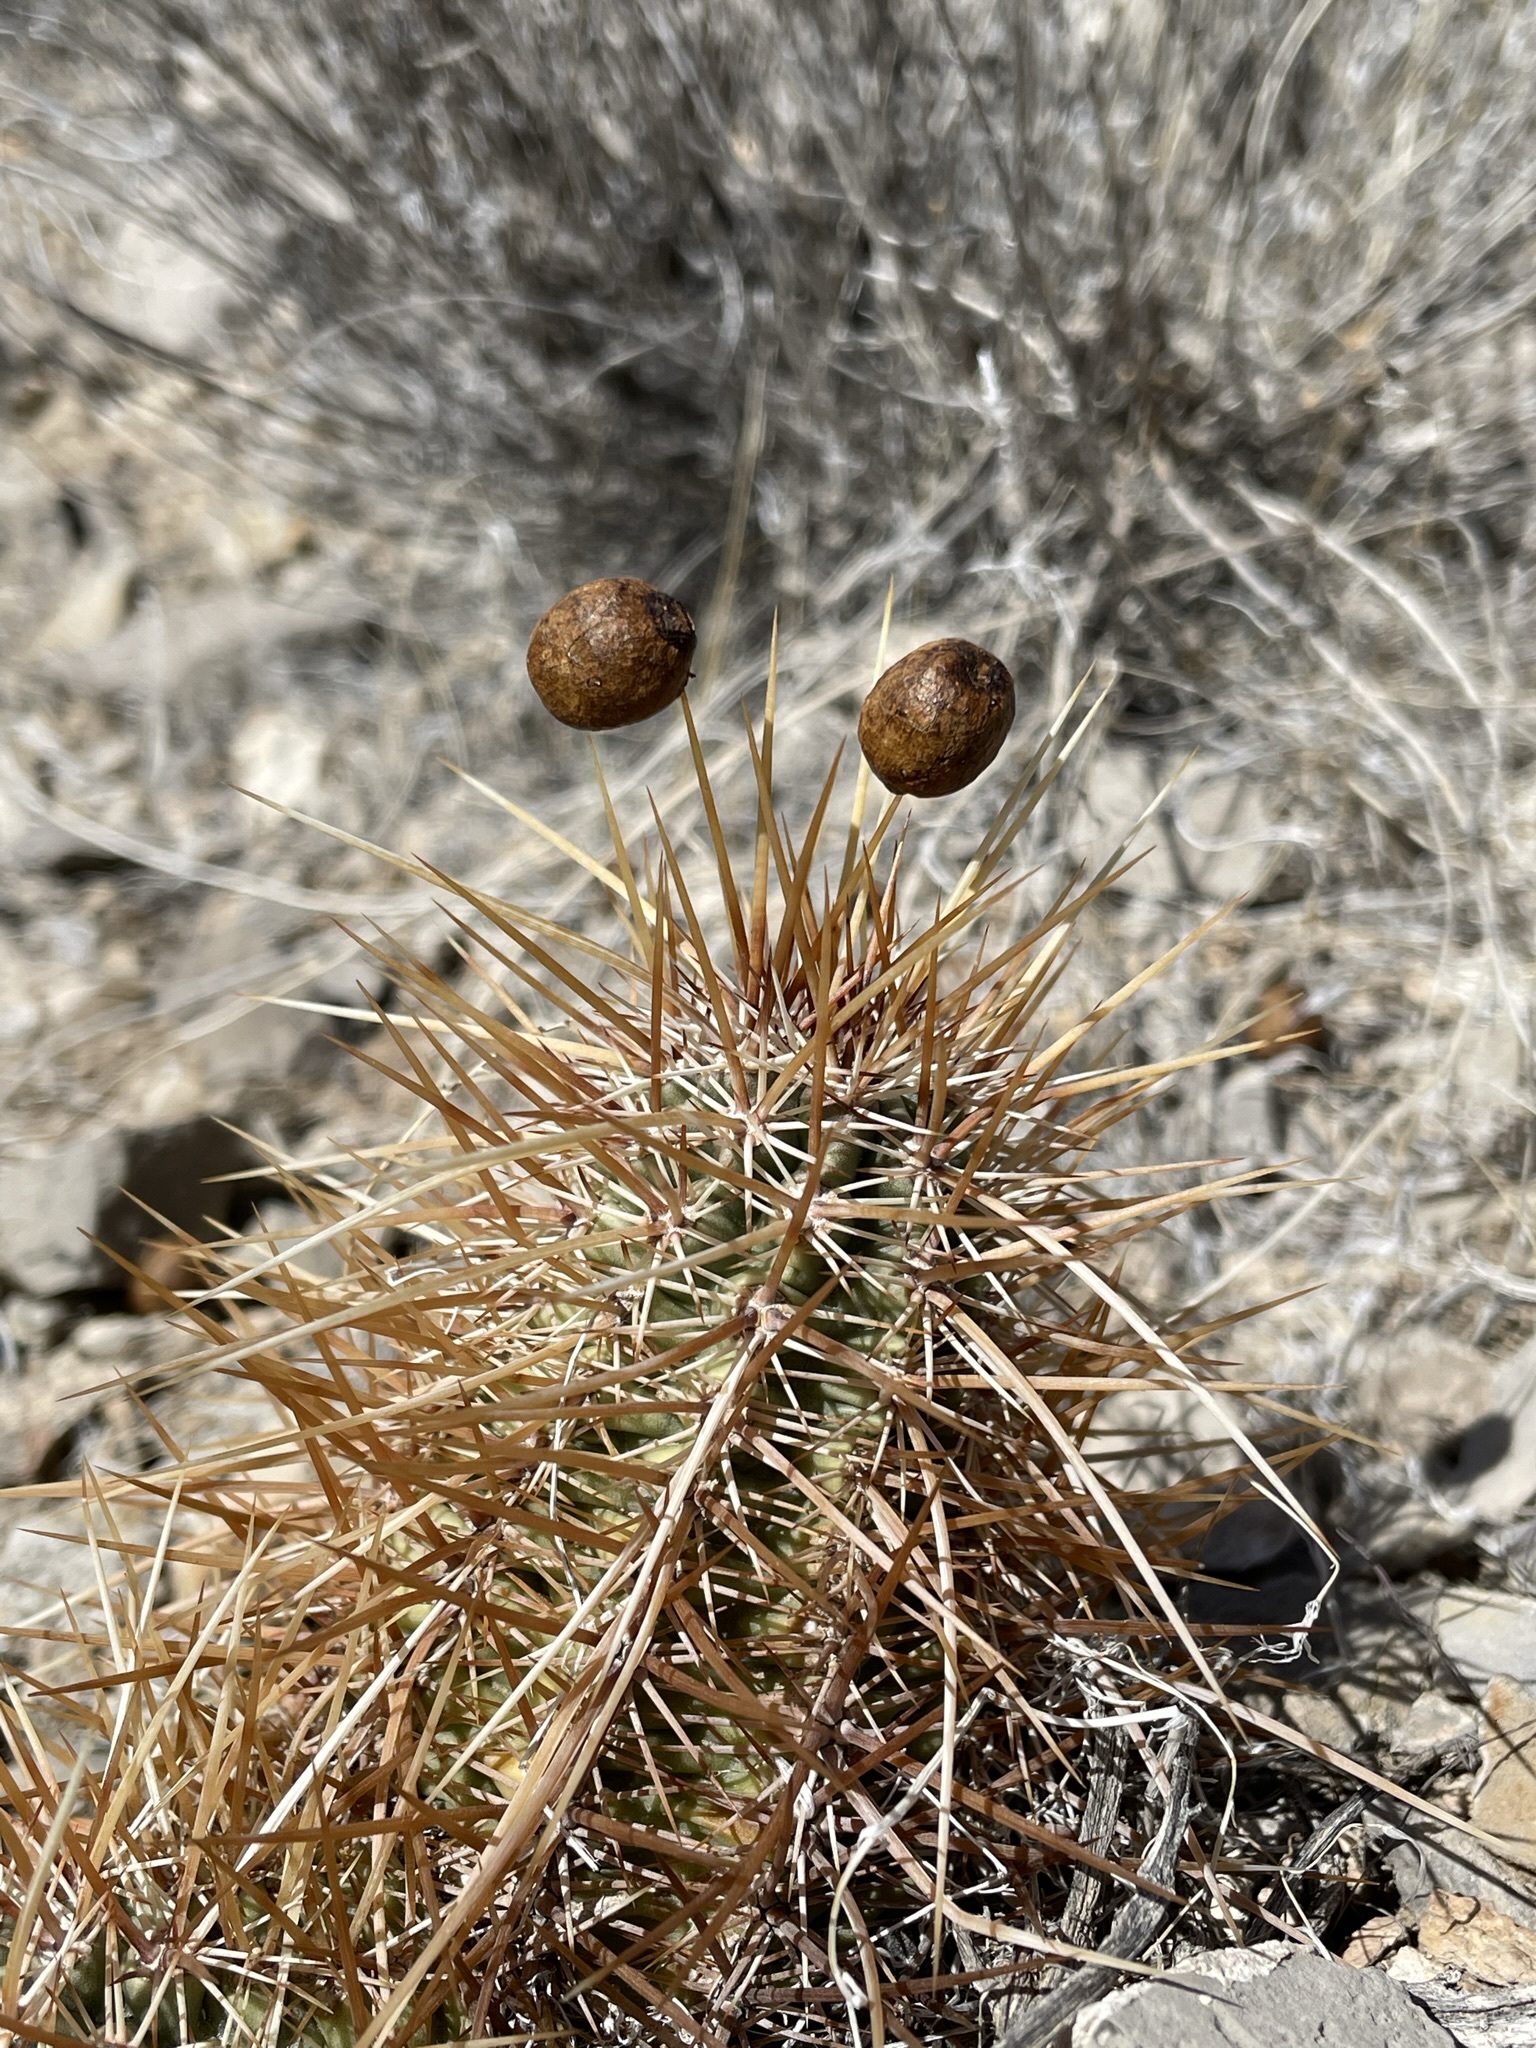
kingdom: Plantae
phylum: Tracheophyta
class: Magnoliopsida
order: Caryophyllales
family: Cactaceae
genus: Echinocereus
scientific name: Echinocereus engelmannii
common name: Engelmann's hedgehog cactus
